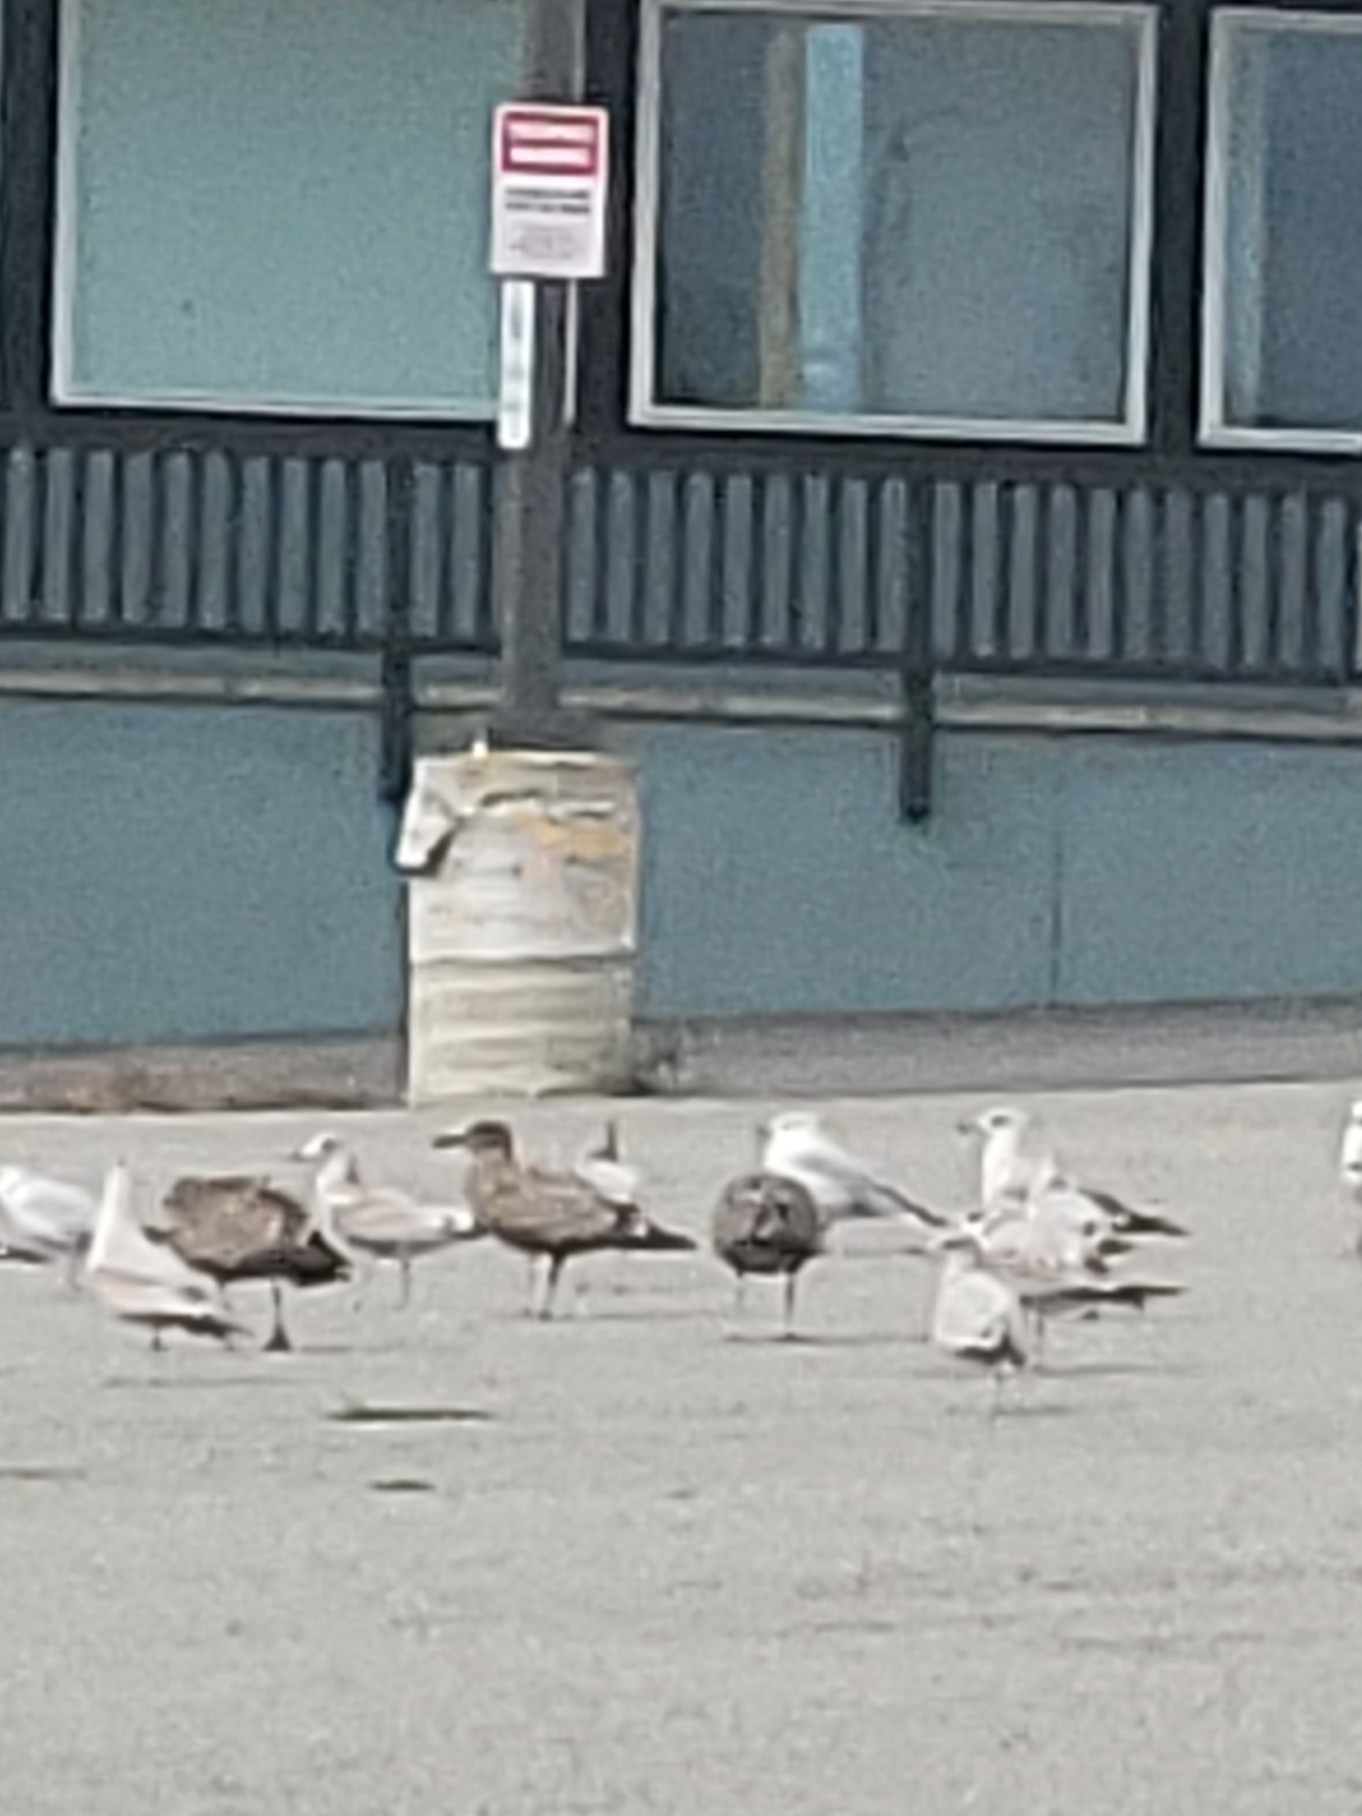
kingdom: Animalia
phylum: Chordata
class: Aves
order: Charadriiformes
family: Laridae
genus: Larus
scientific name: Larus delawarensis
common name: Ring-billed gull
